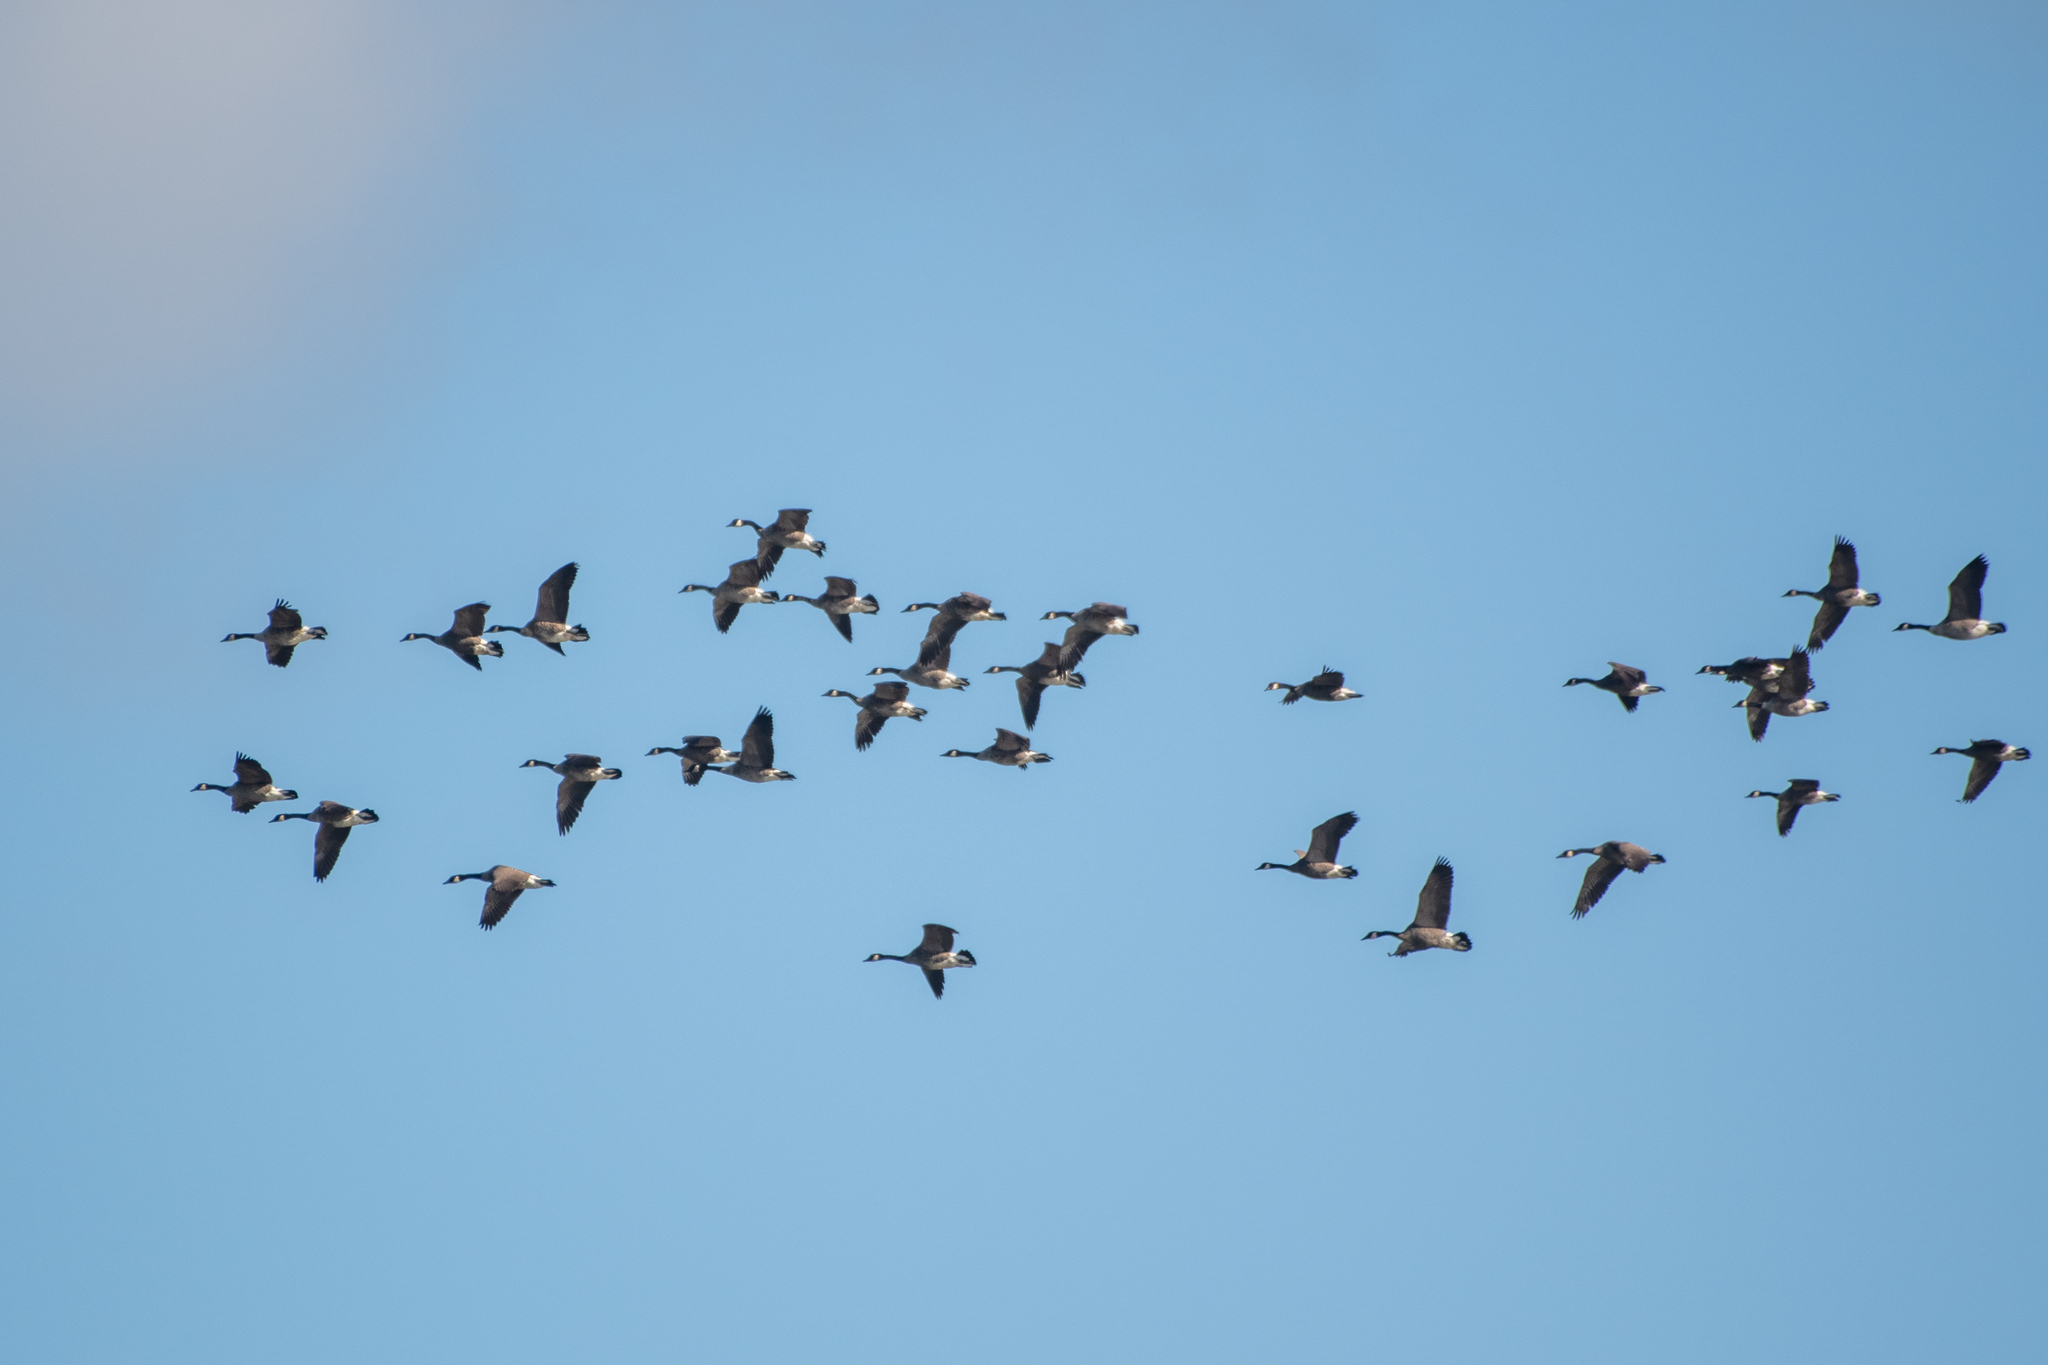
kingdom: Animalia
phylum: Chordata
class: Aves
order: Anseriformes
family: Anatidae
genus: Branta
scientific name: Branta canadensis
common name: Canada goose
